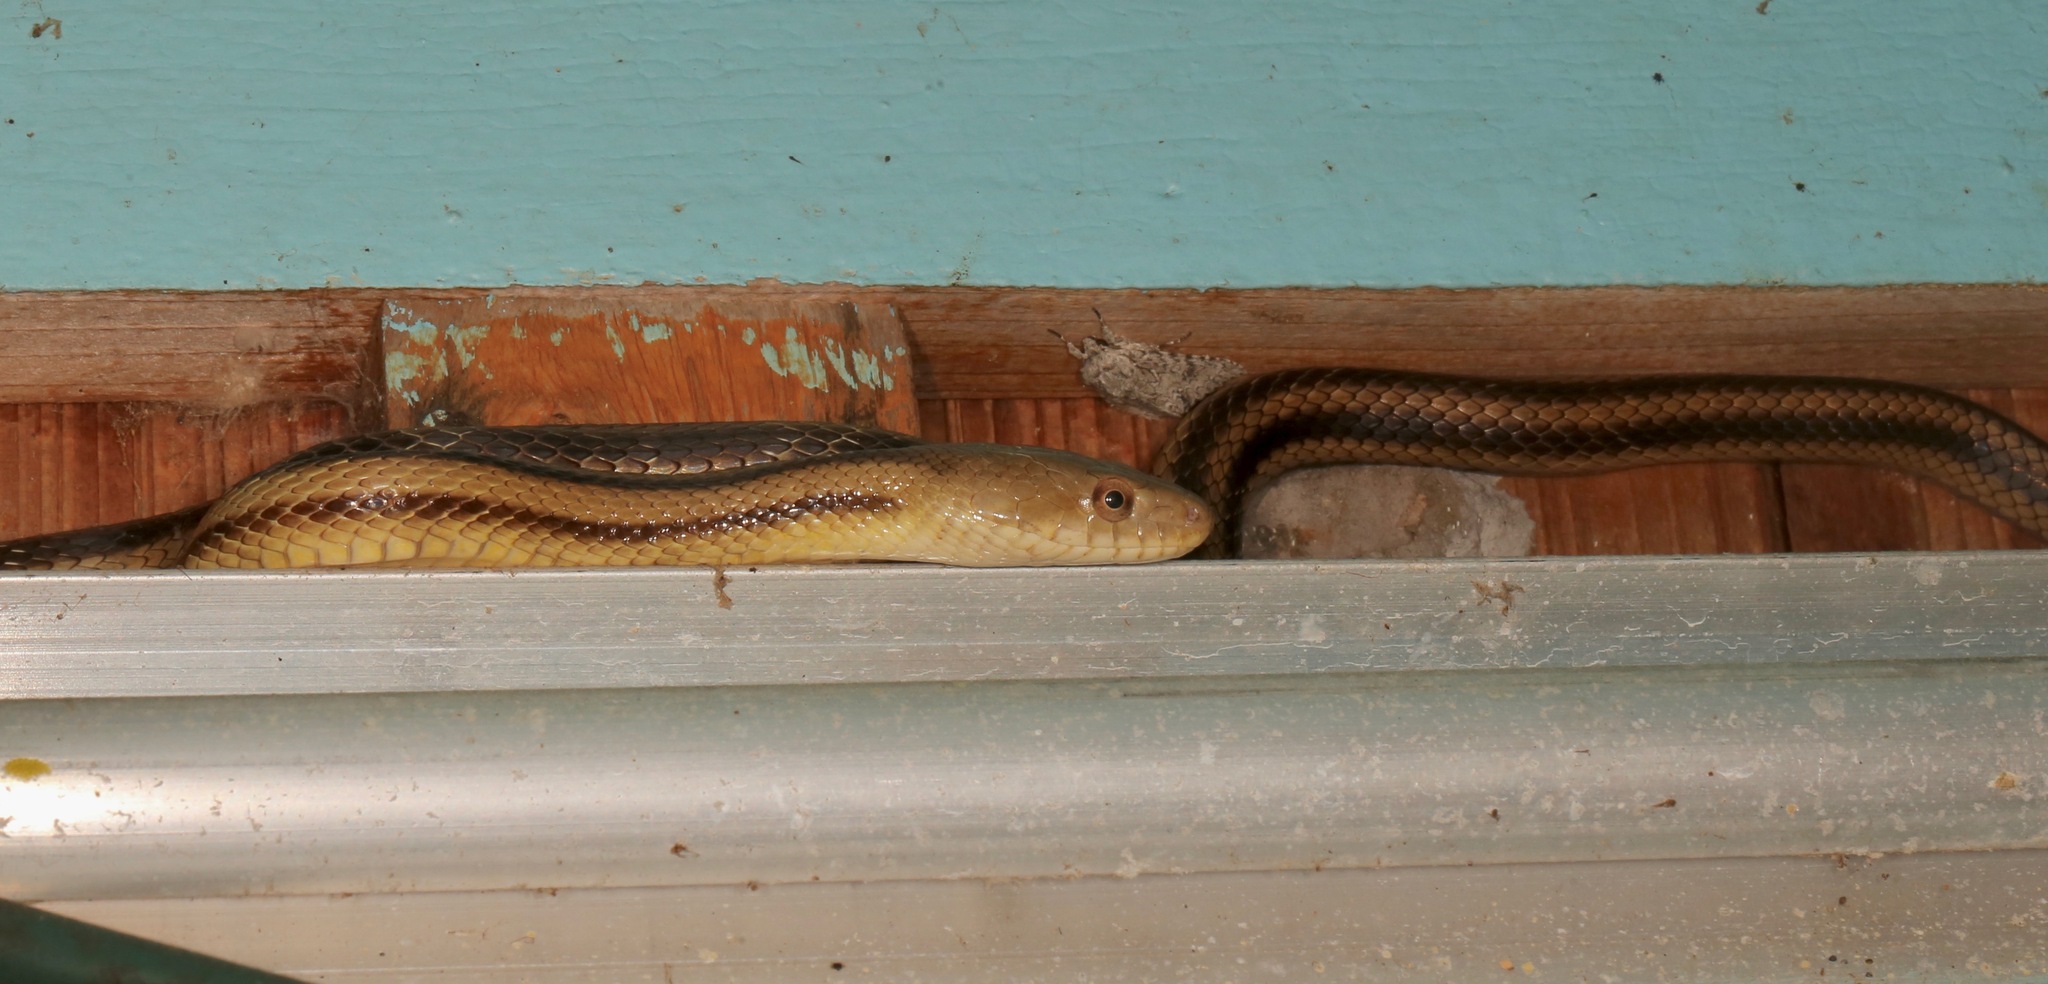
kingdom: Animalia
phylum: Chordata
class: Squamata
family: Colubridae
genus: Pantherophis
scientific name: Pantherophis alleghaniensis
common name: Eastern rat snake
